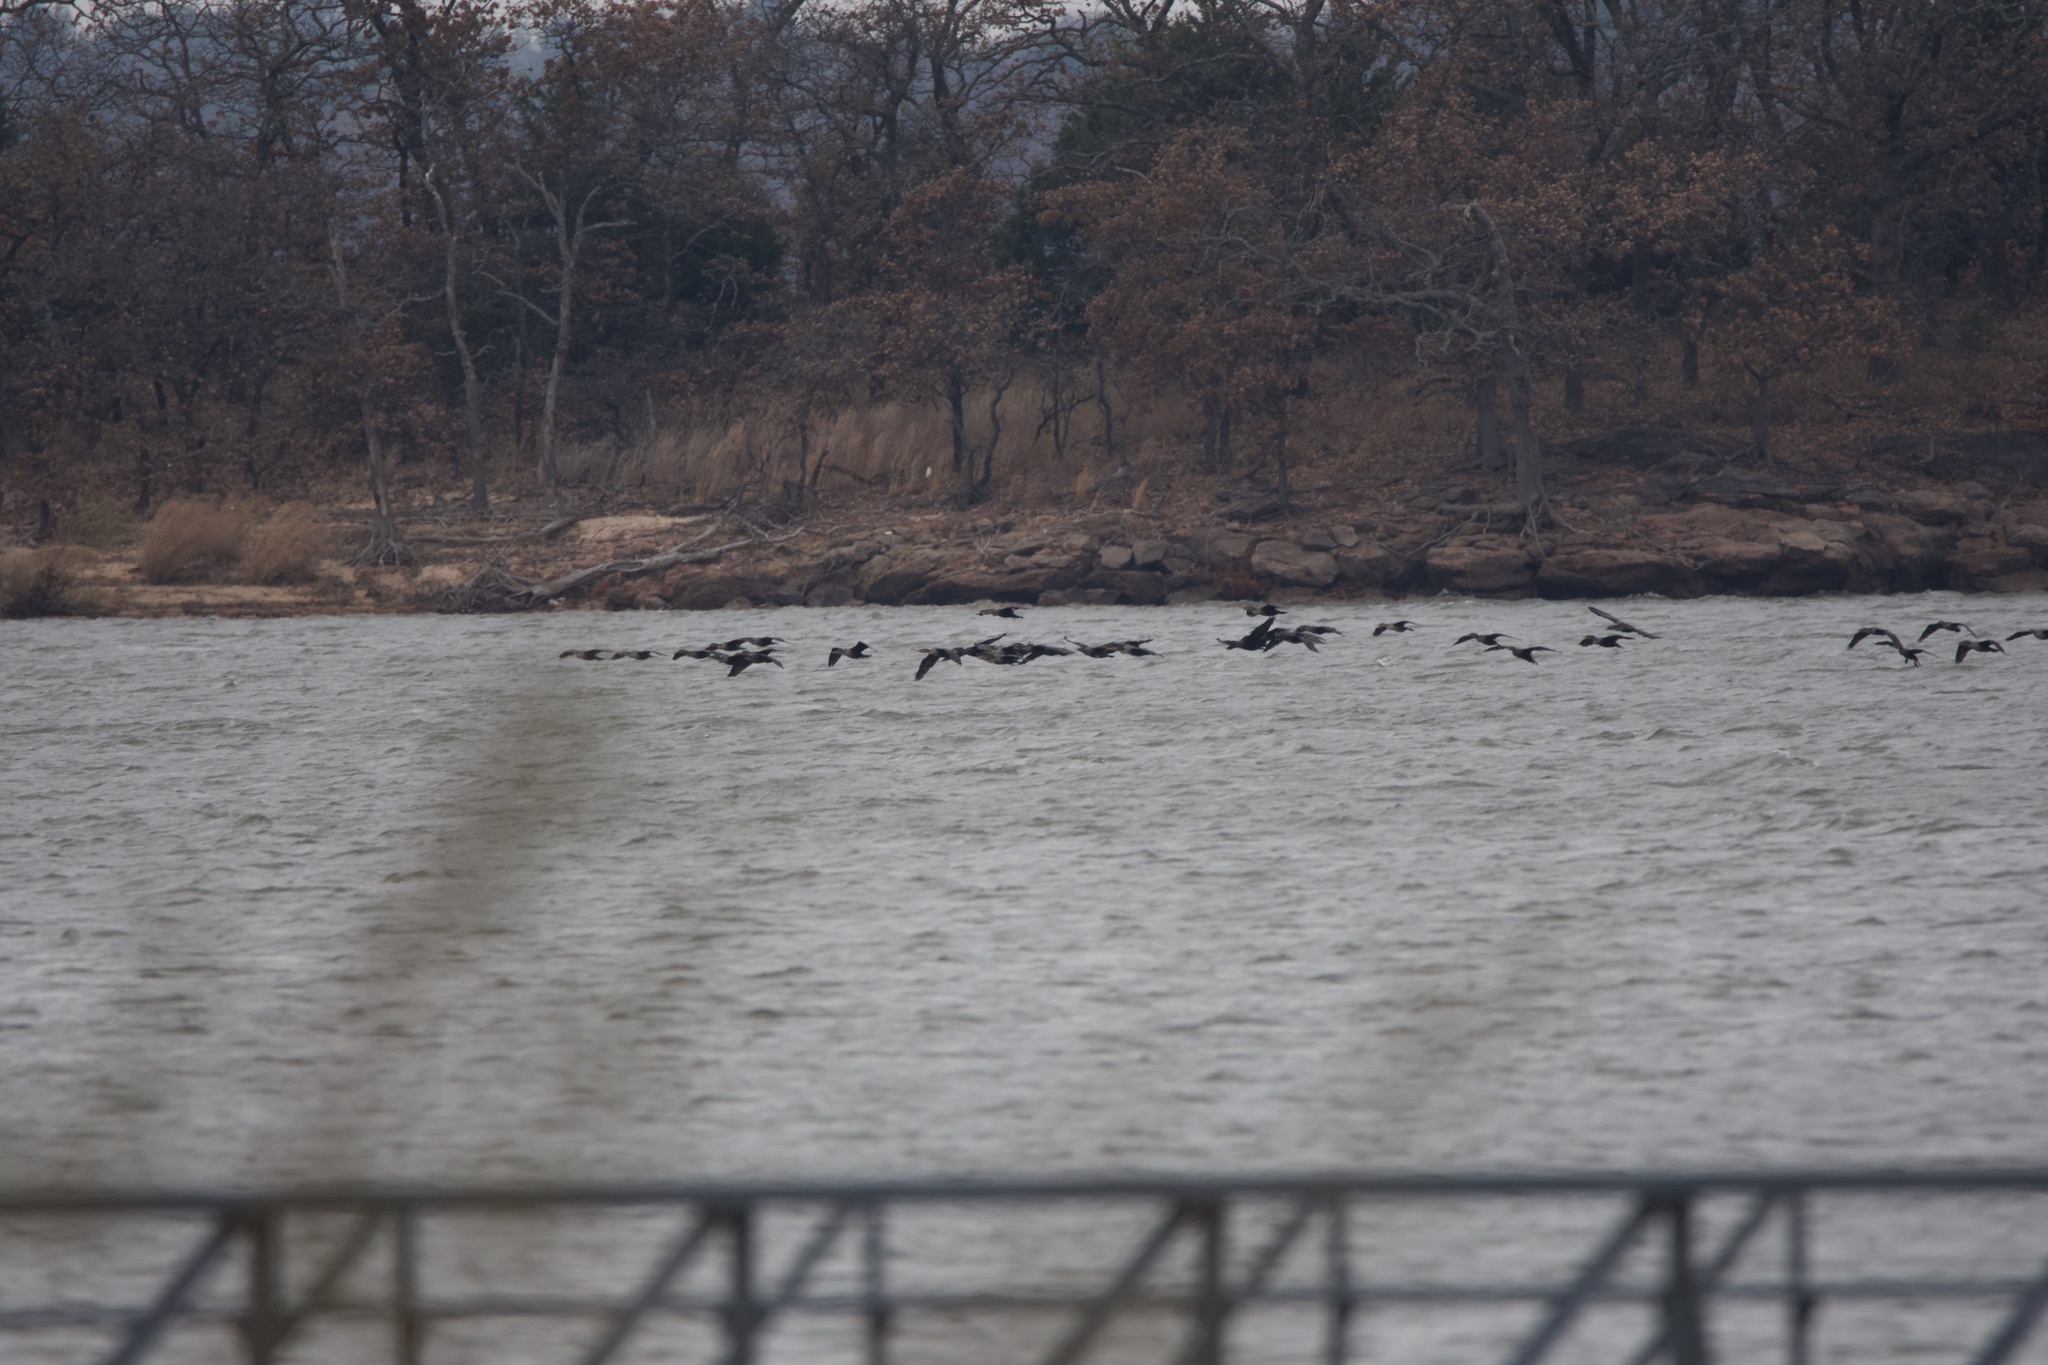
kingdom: Animalia
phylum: Chordata
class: Aves
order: Suliformes
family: Phalacrocoracidae
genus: Phalacrocorax
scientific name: Phalacrocorax auritus
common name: Double-crested cormorant
